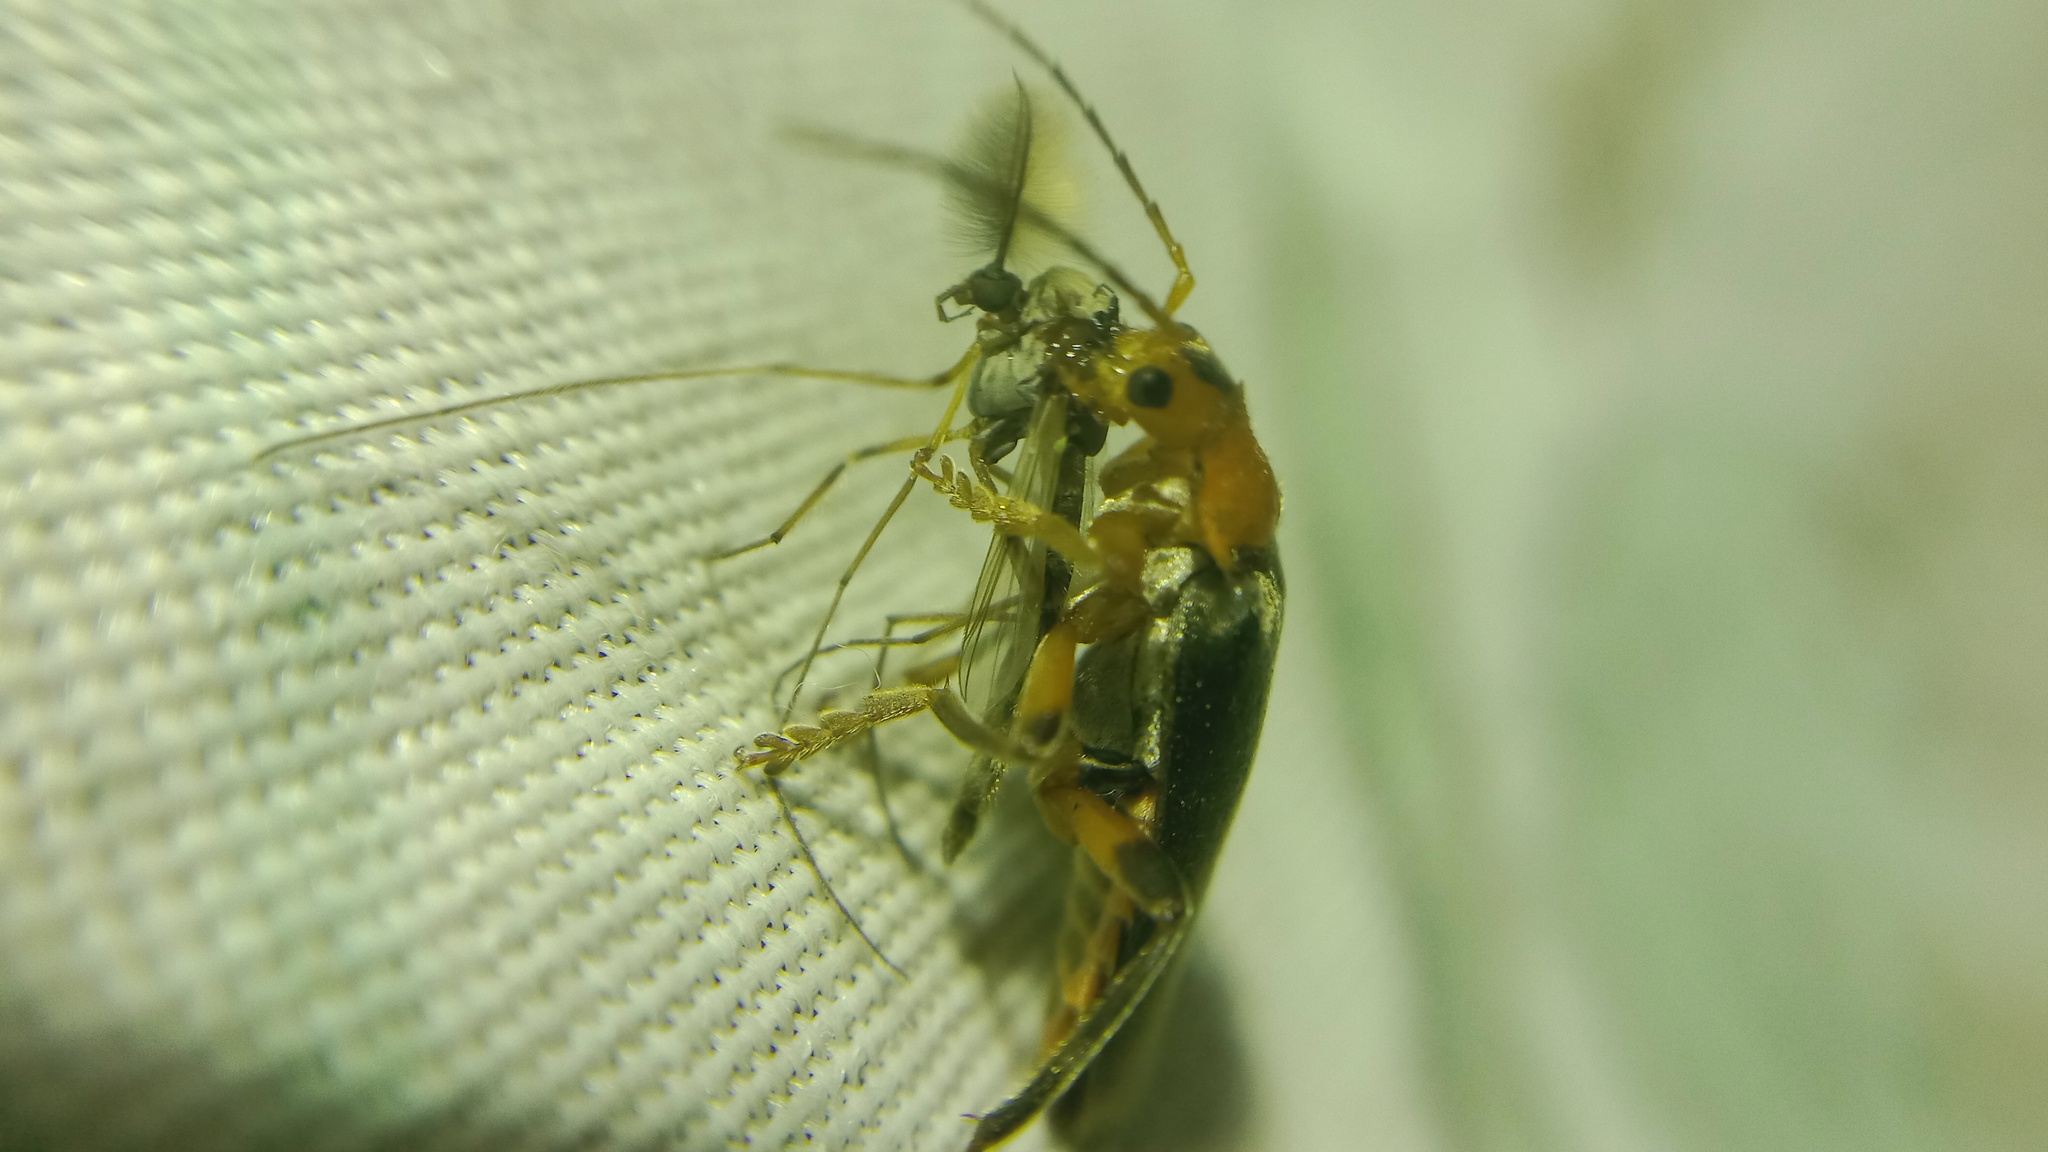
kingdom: Animalia
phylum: Arthropoda
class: Insecta
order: Coleoptera
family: Cantharidae
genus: Cantharis
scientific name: Cantharis livida
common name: Livid soldier beetle
